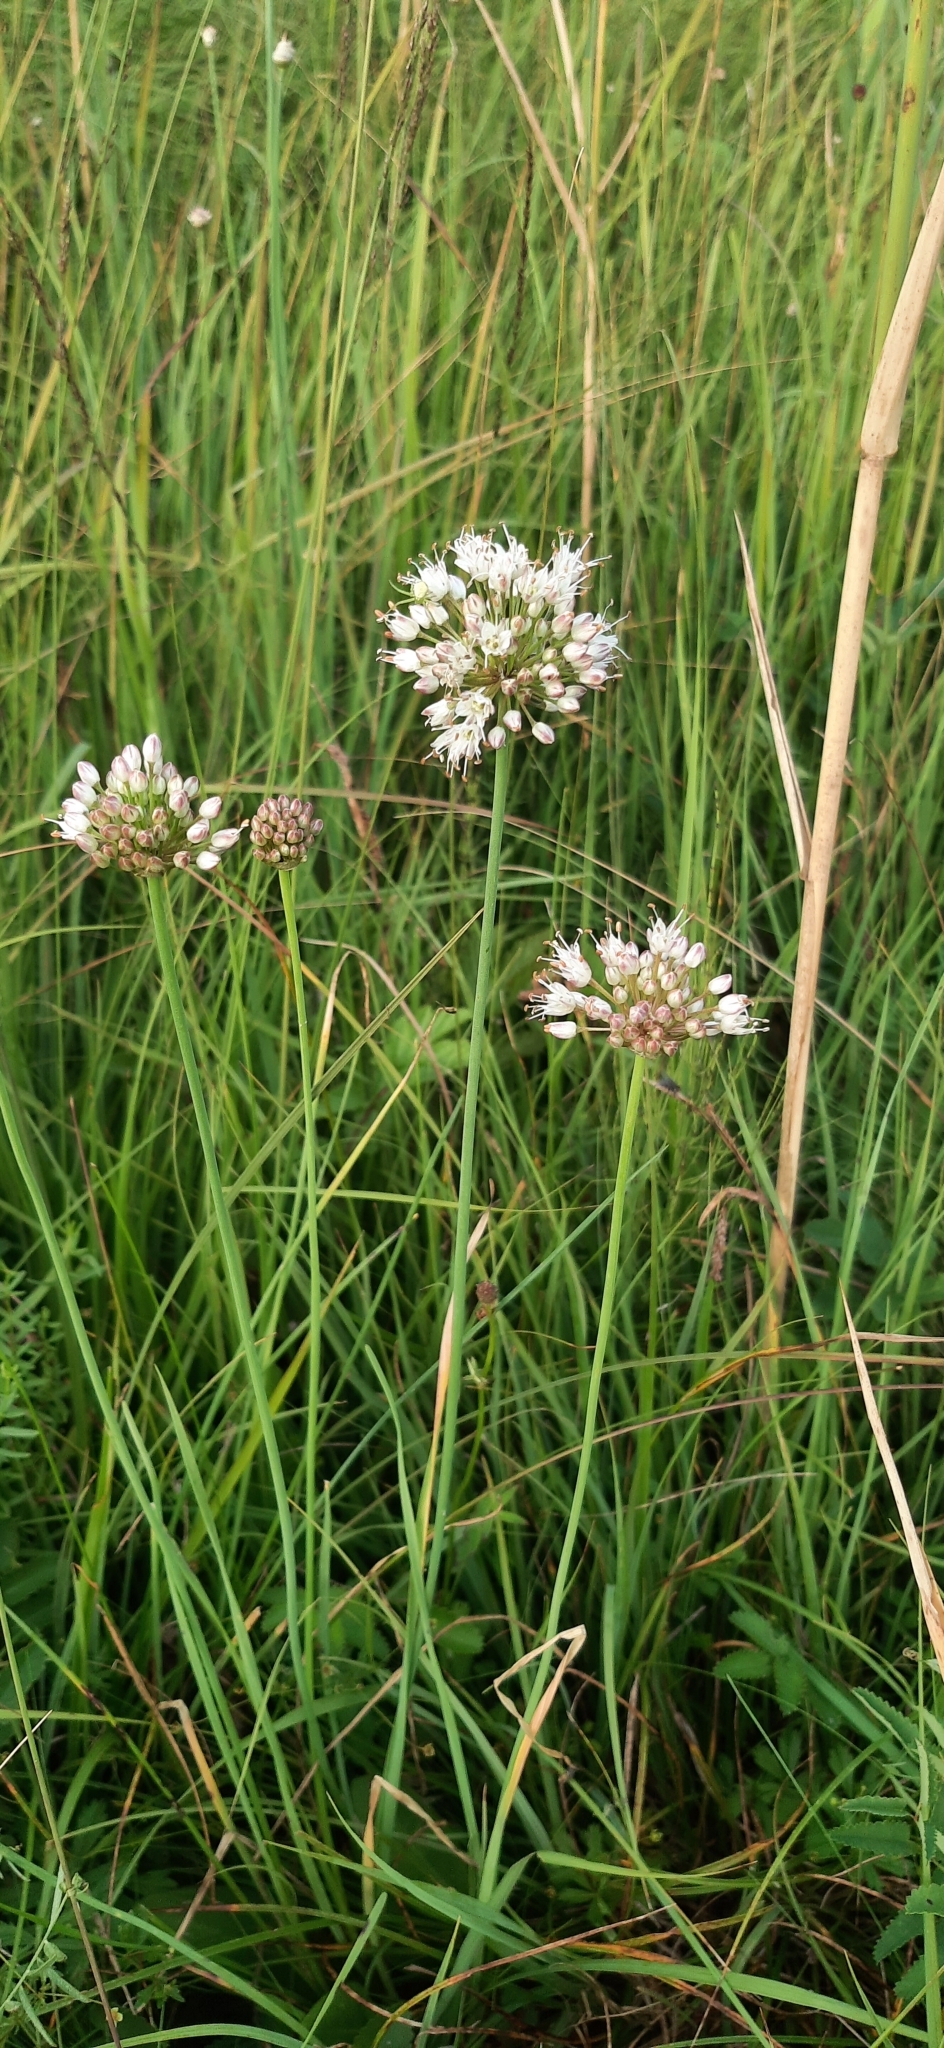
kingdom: Plantae
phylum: Tracheophyta
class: Liliopsida
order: Asparagales
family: Amaryllidaceae
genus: Allium
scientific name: Allium suaveolens
